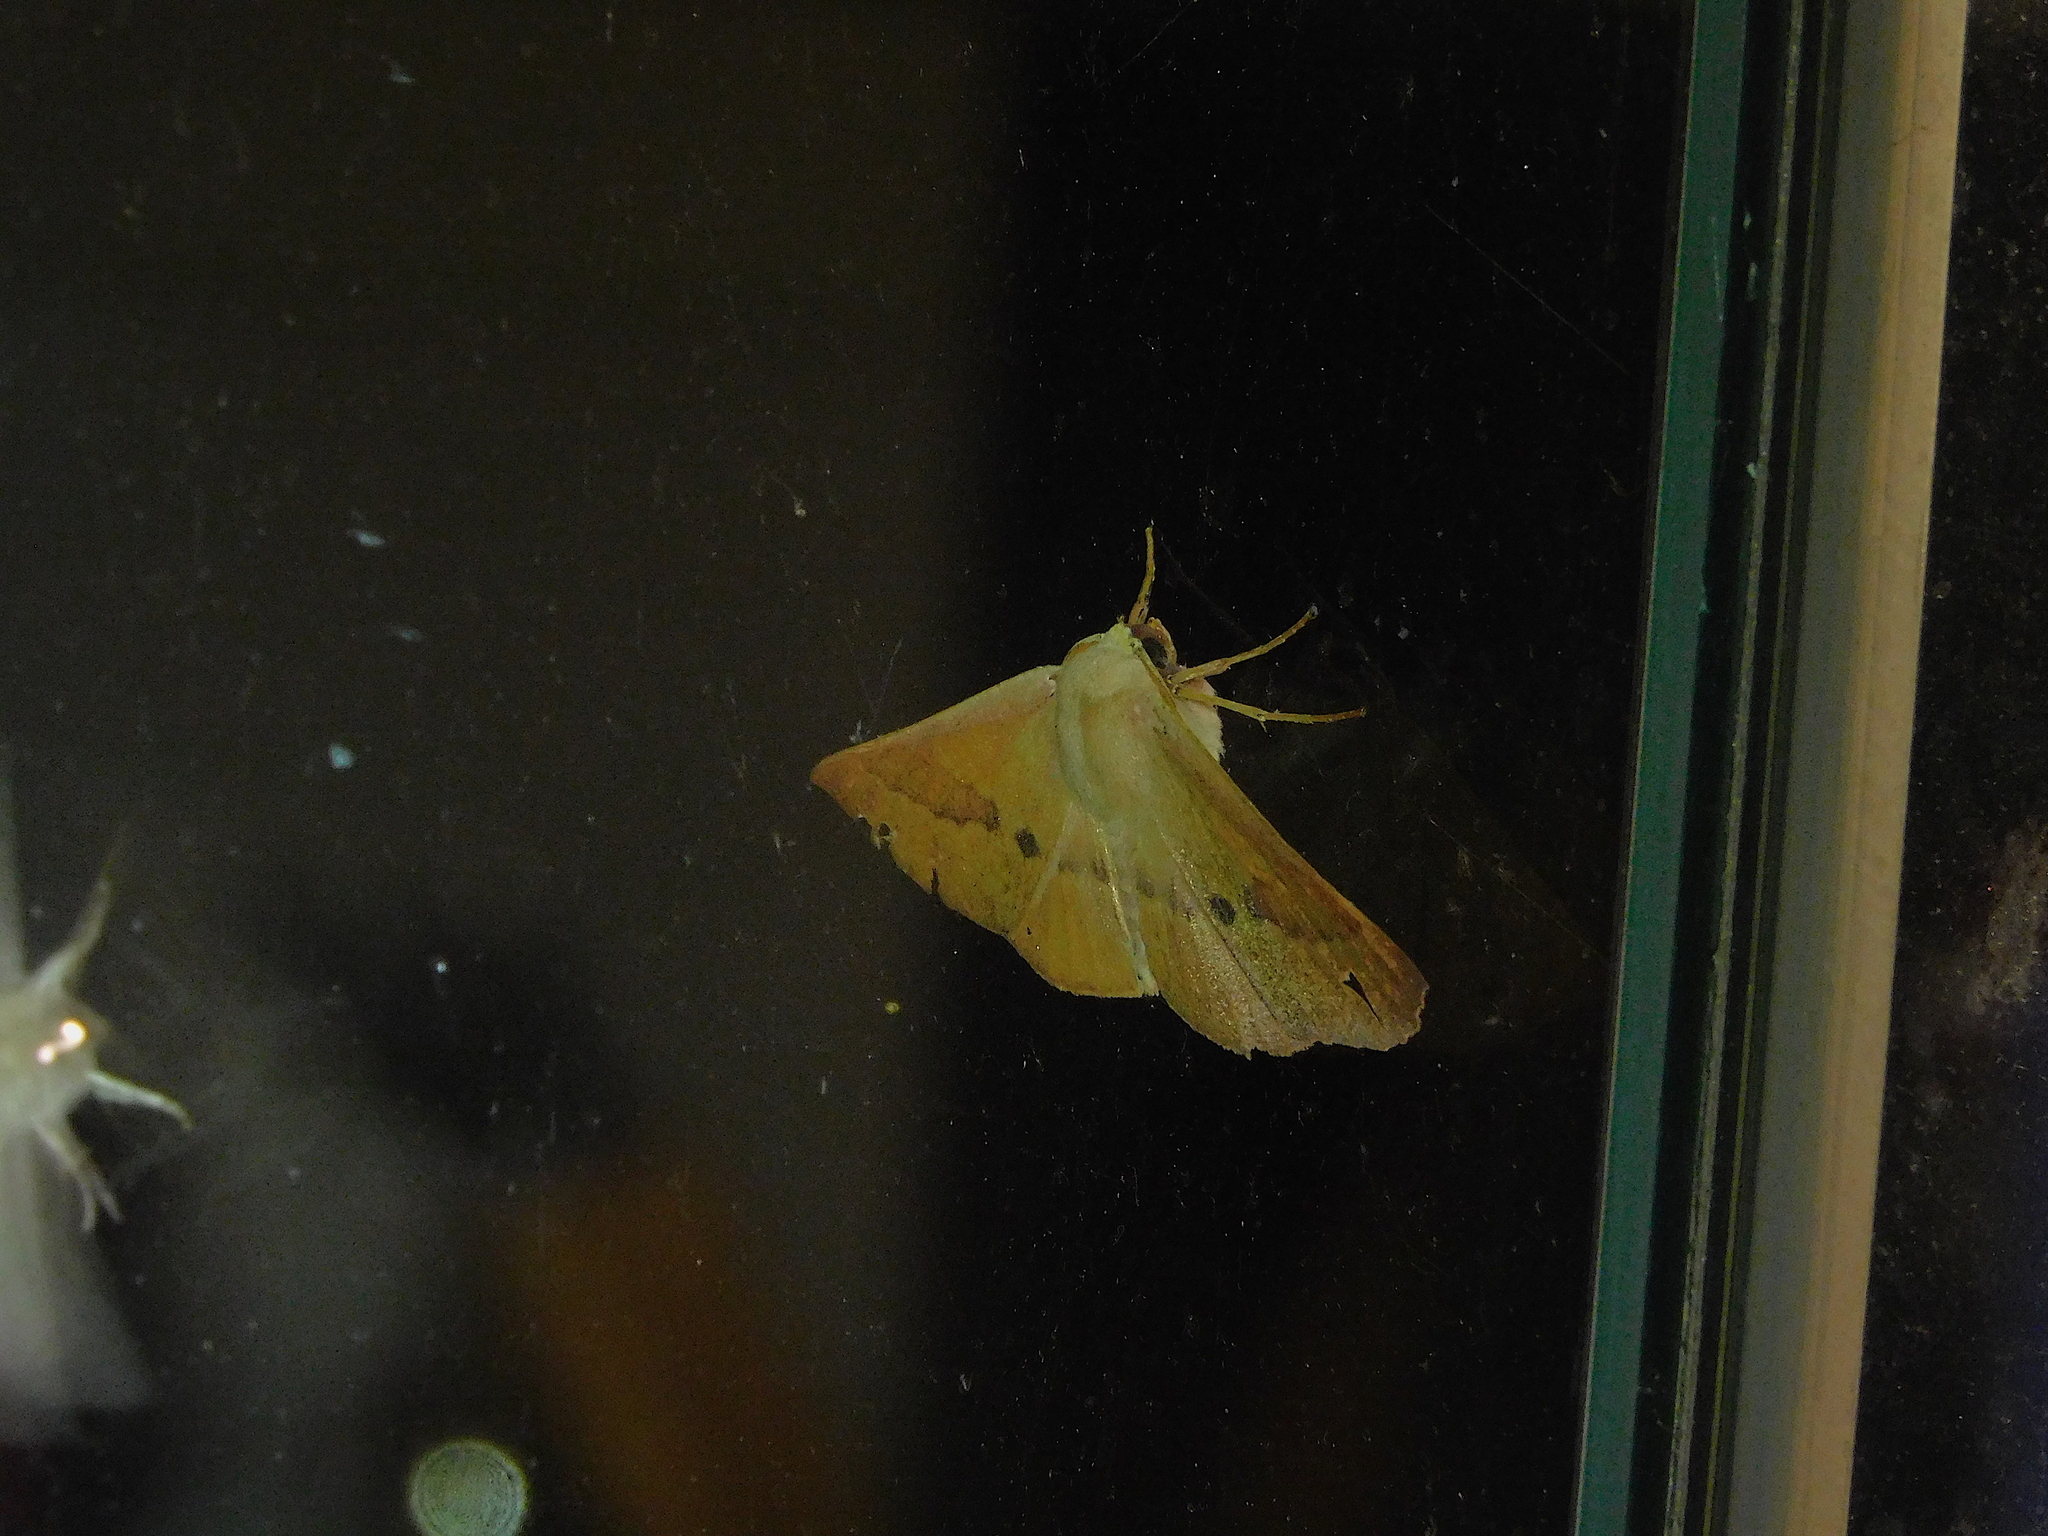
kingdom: Animalia
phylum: Arthropoda
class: Insecta
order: Lepidoptera
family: Geometridae
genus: Monoctenia
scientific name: Monoctenia falernaria
